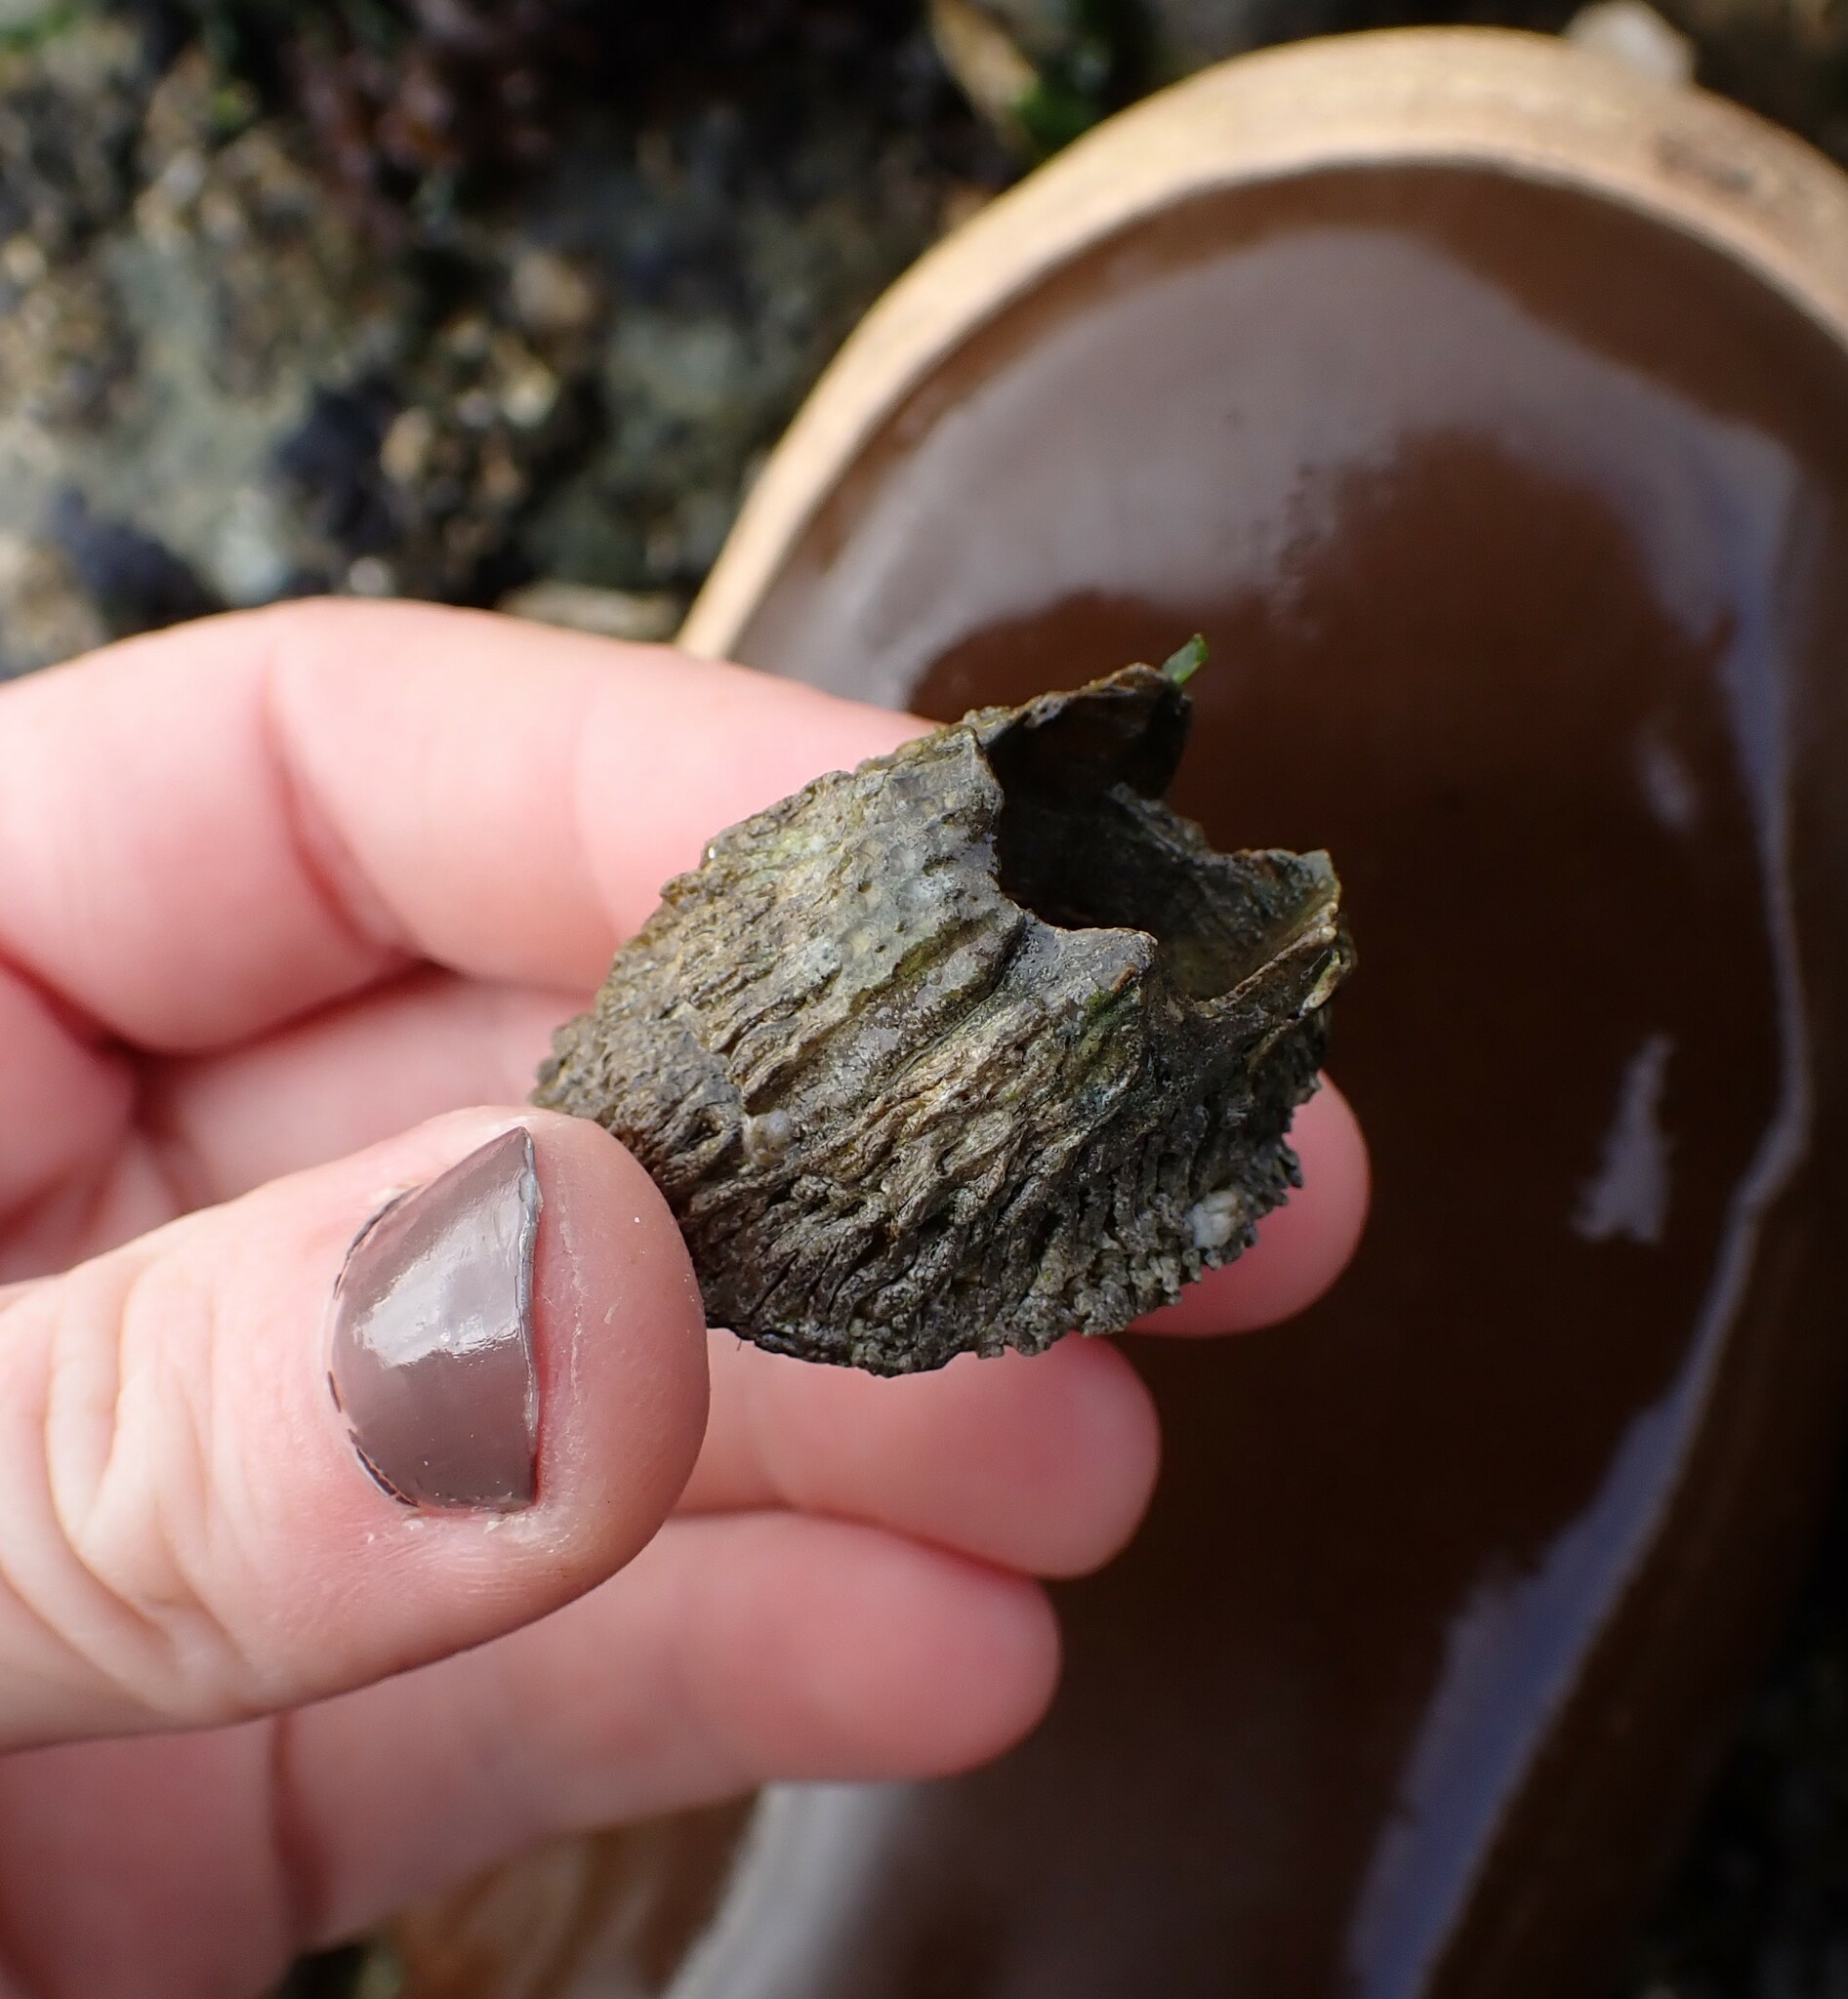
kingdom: Animalia
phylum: Arthropoda
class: Maxillopoda
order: Sessilia
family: Archaeobalanidae
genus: Semibalanus
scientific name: Semibalanus cariosus
